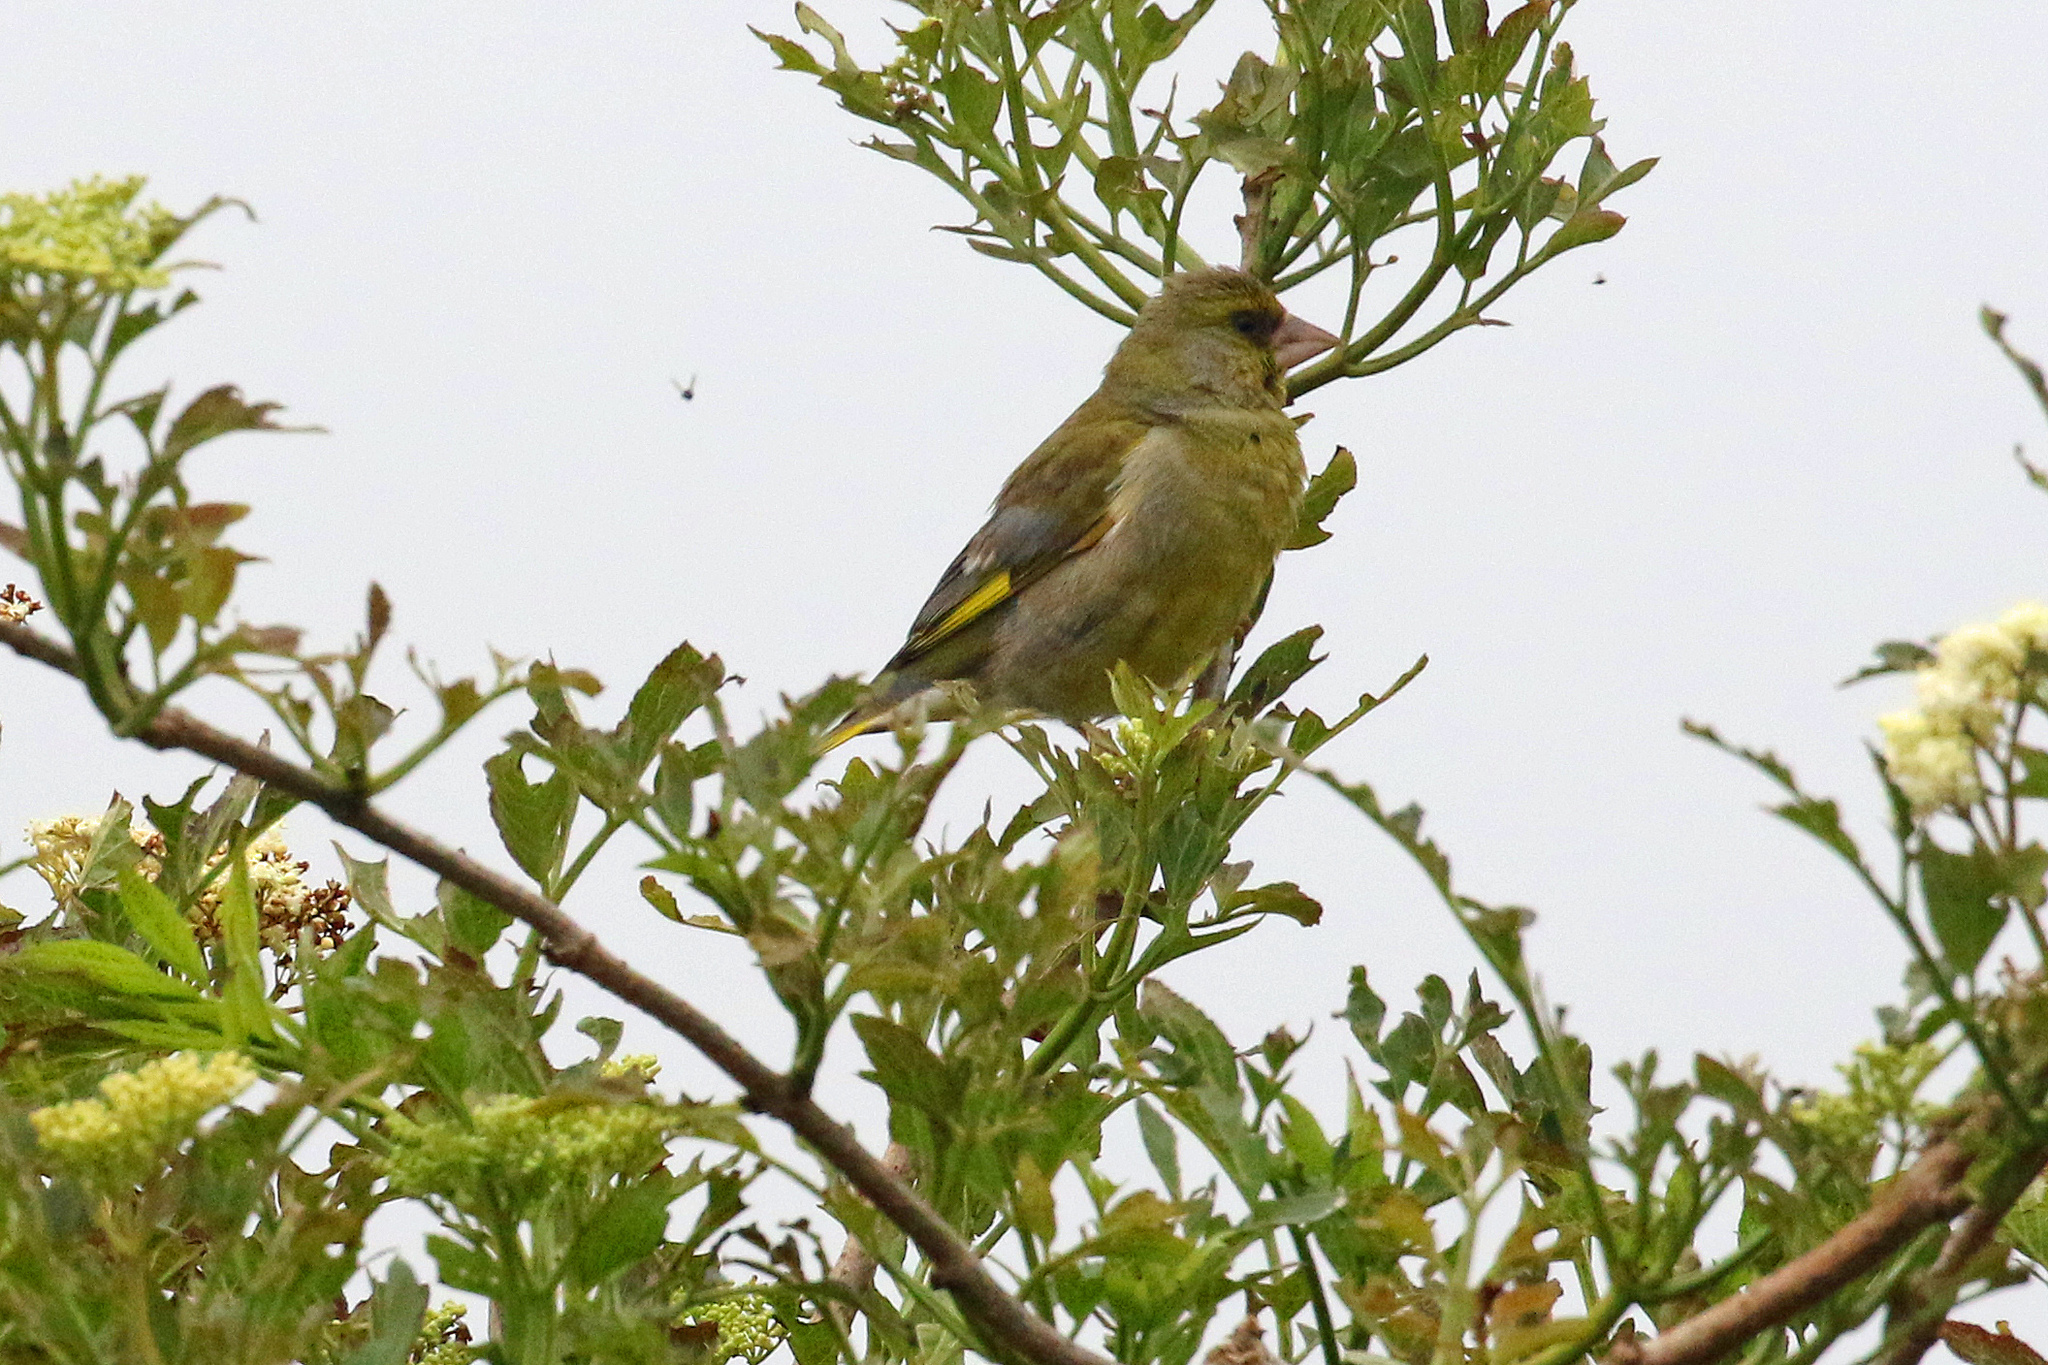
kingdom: Plantae
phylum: Tracheophyta
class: Liliopsida
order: Poales
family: Poaceae
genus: Chloris
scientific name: Chloris chloris
